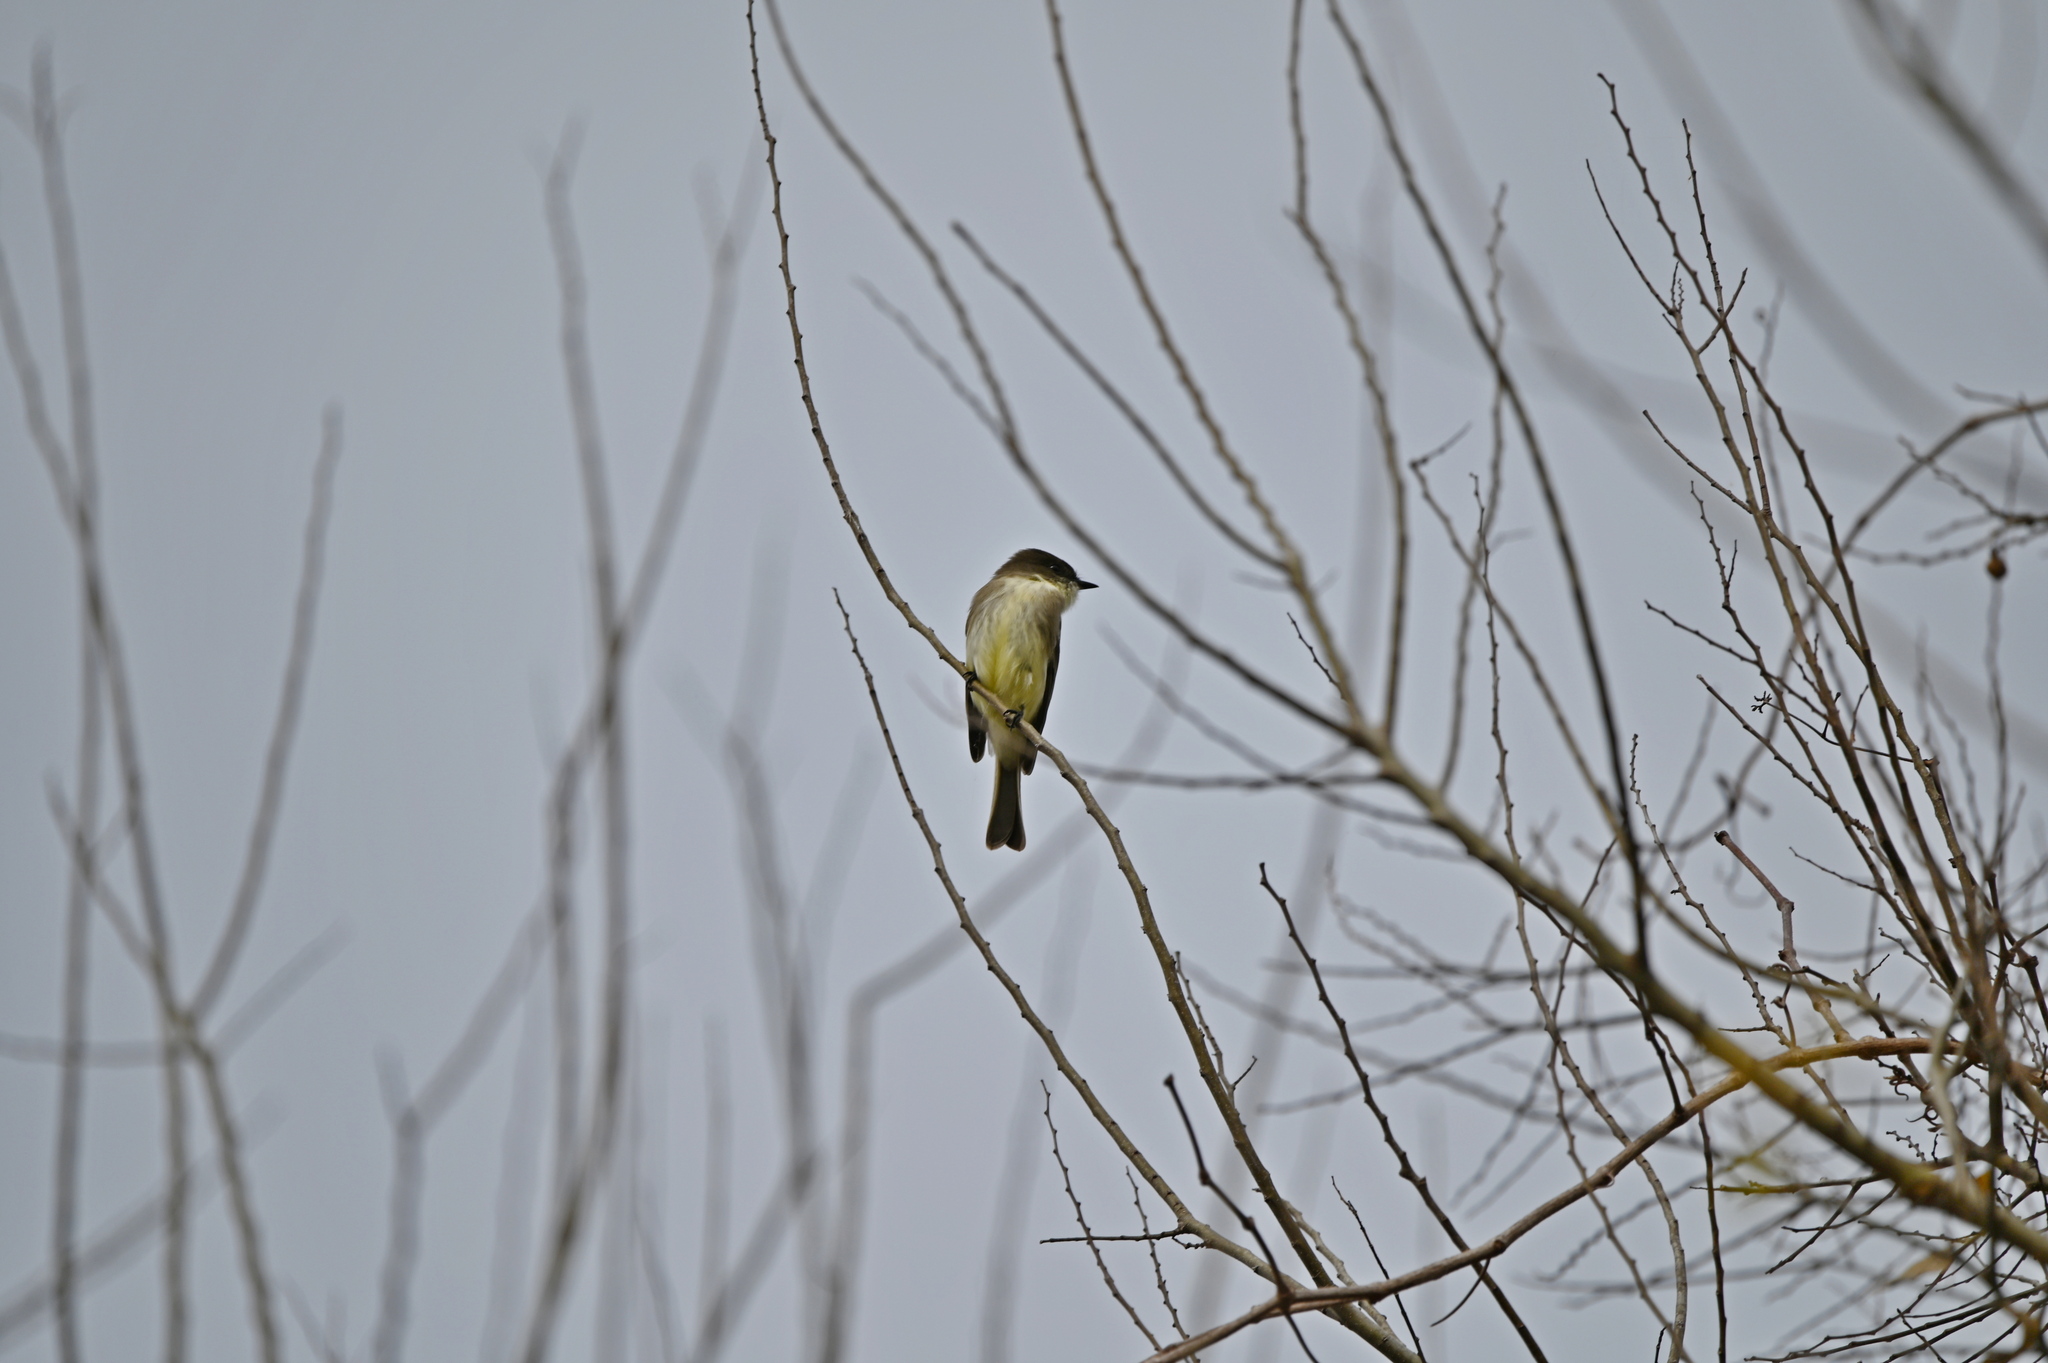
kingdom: Animalia
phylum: Chordata
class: Aves
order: Passeriformes
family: Tyrannidae
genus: Sayornis
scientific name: Sayornis phoebe
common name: Eastern phoebe
